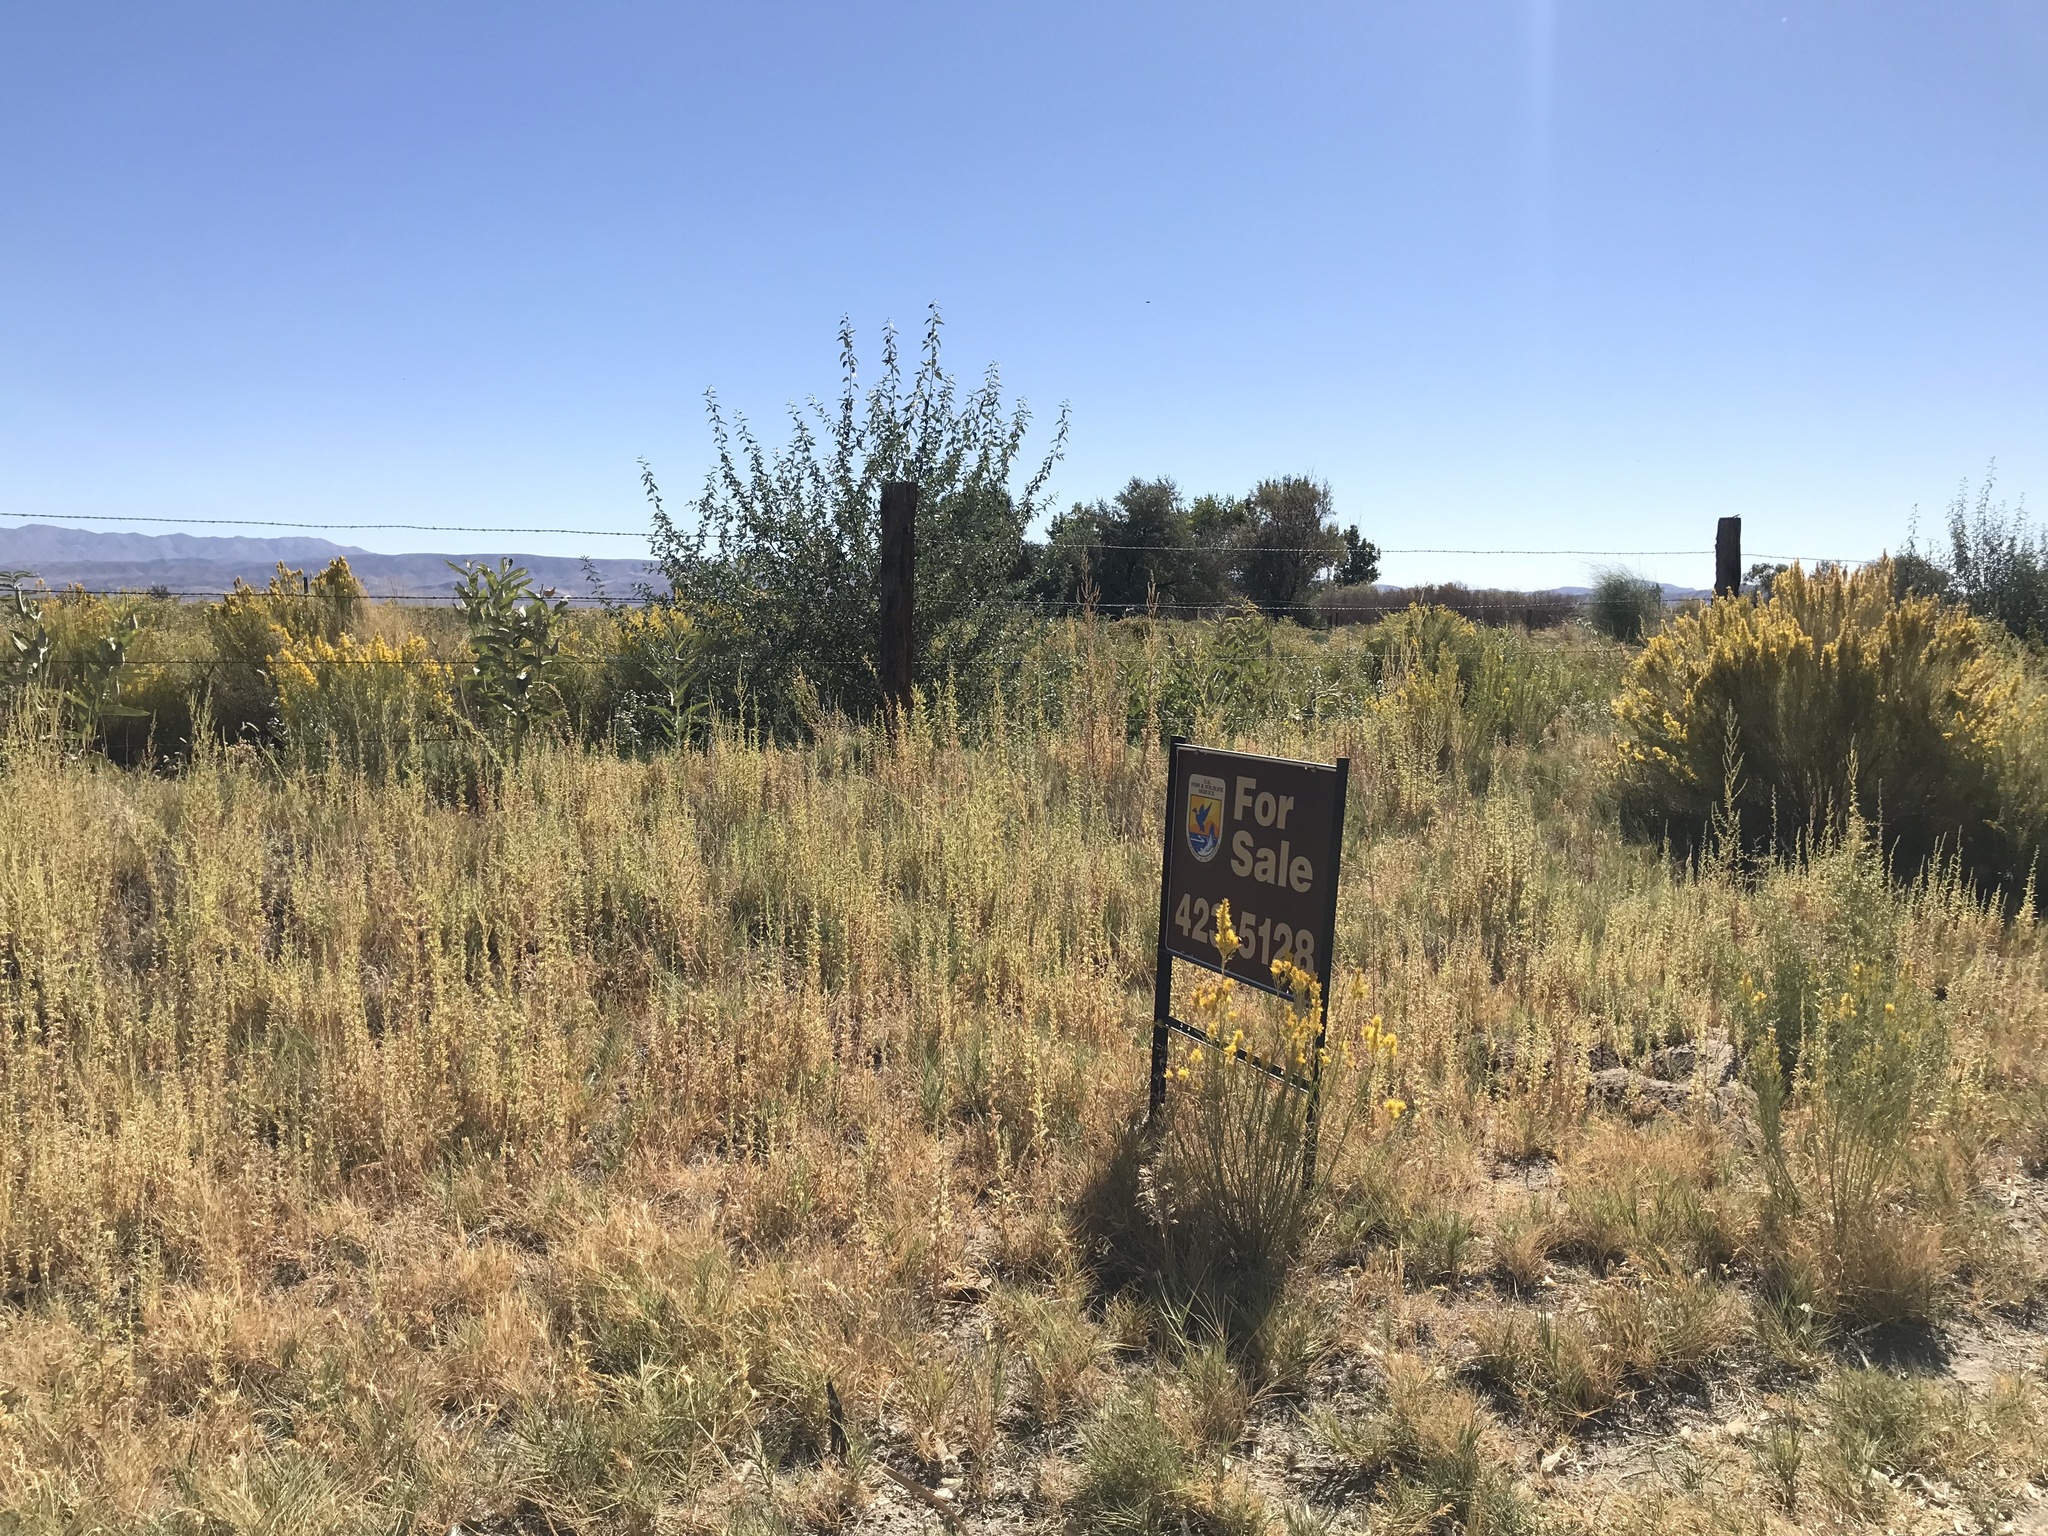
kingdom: Plantae
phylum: Tracheophyta
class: Magnoliopsida
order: Gentianales
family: Apocynaceae
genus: Asclepias
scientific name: Asclepias speciosa
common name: Showy milkweed
